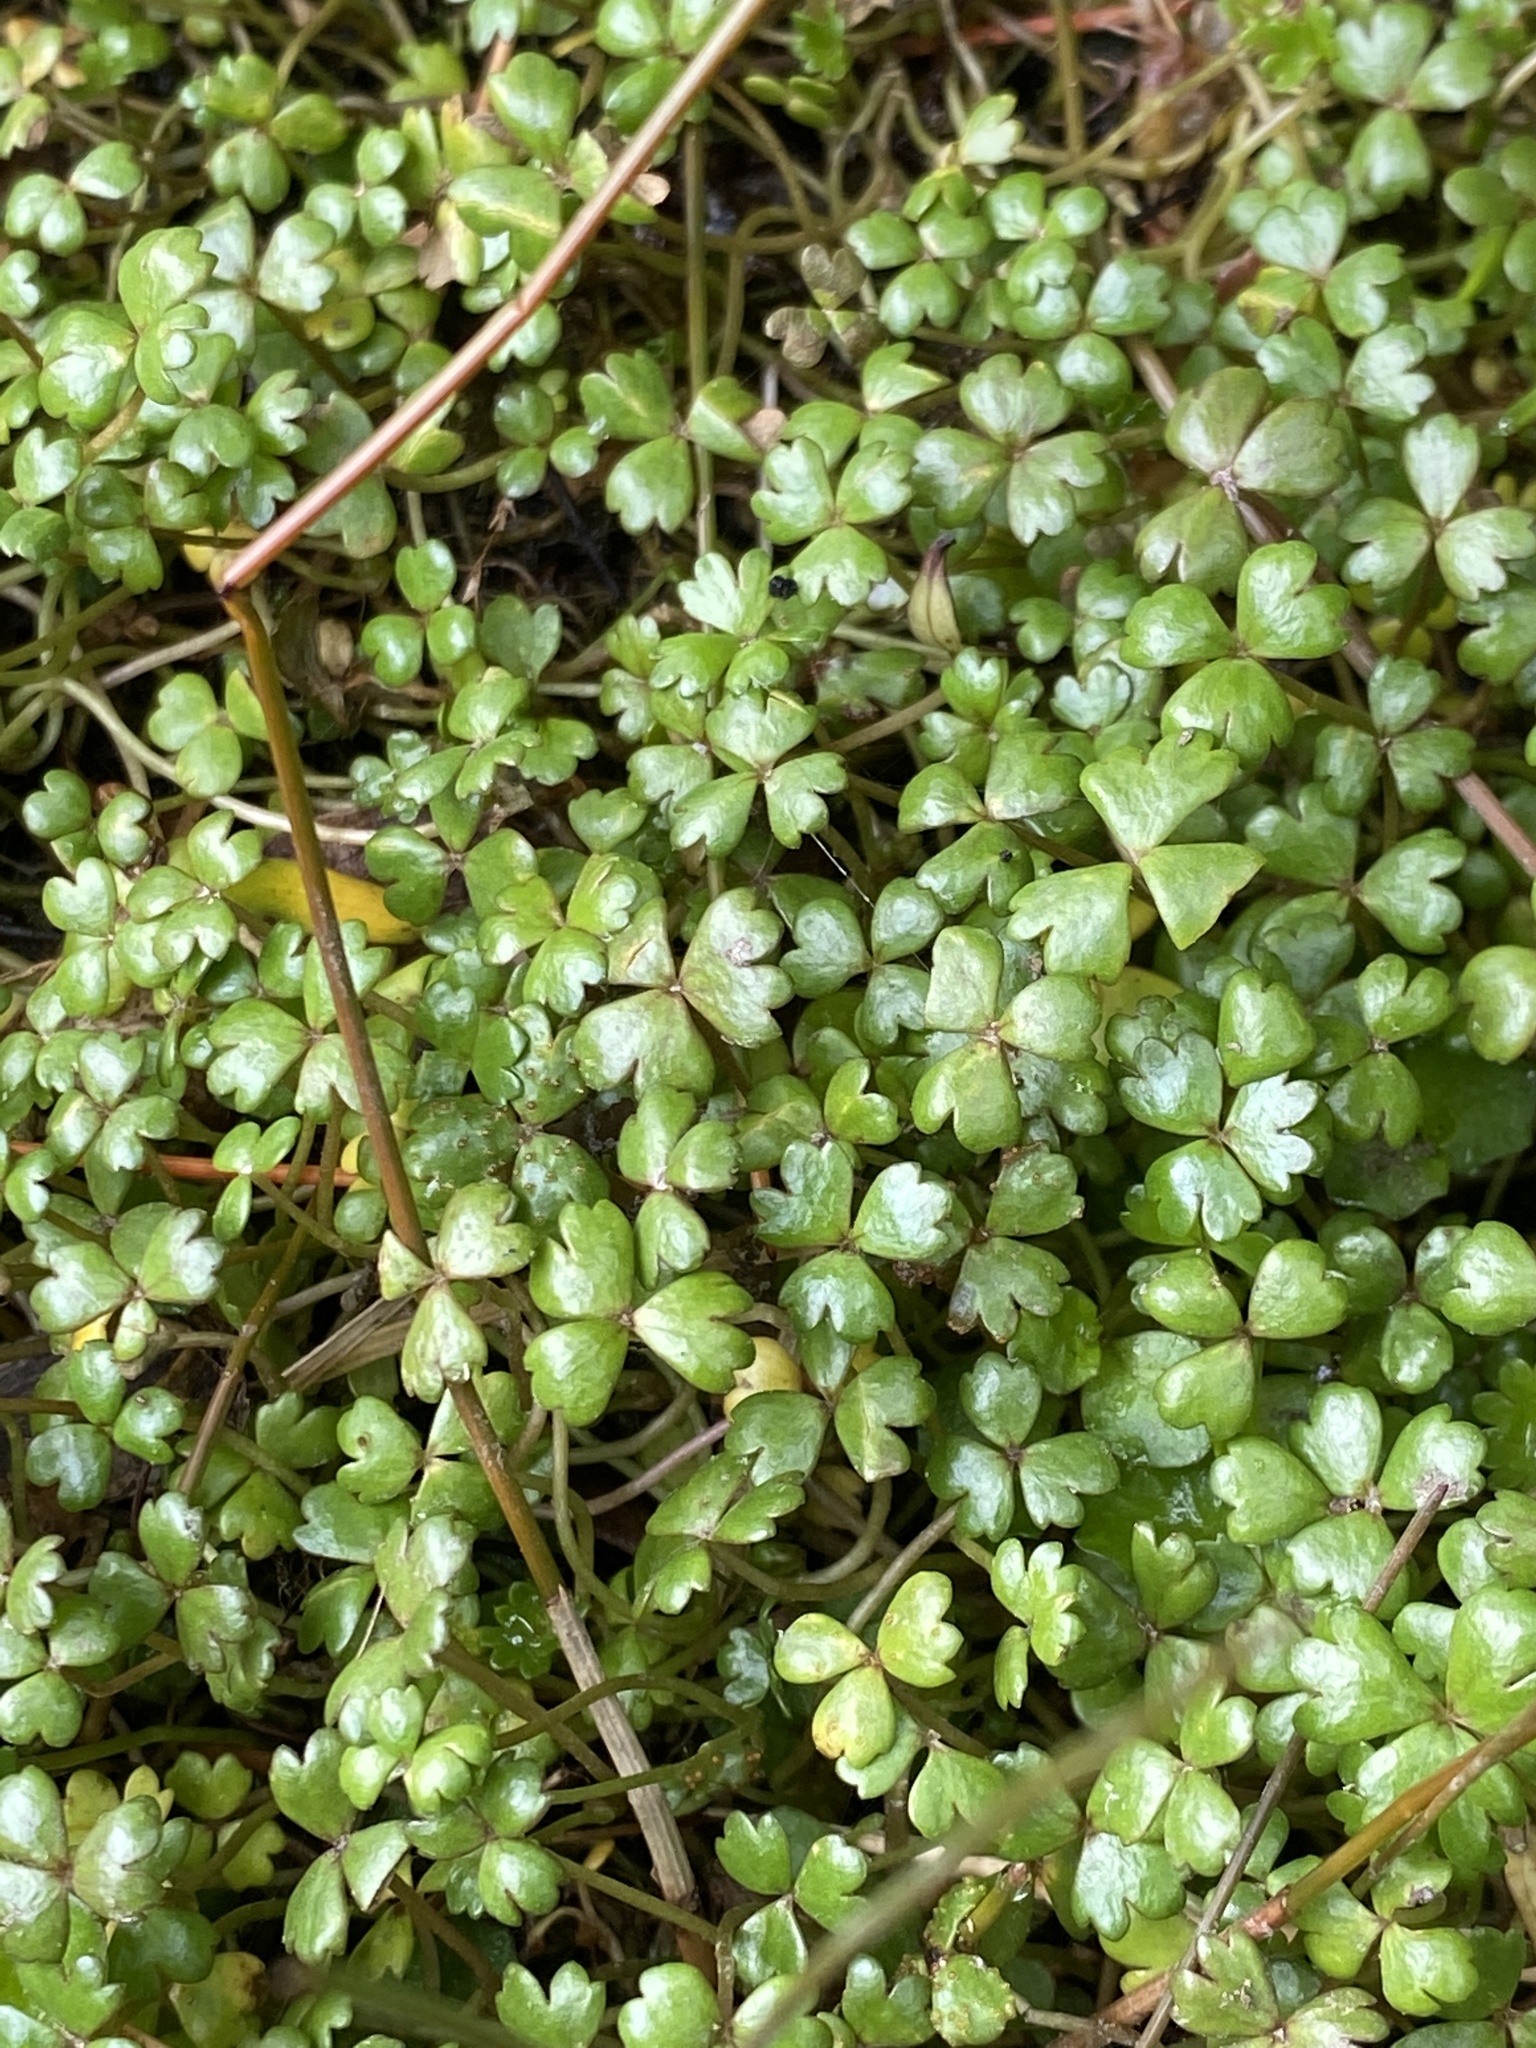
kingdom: Plantae
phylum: Tracheophyta
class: Magnoliopsida
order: Apiales
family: Araliaceae
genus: Hydrocotyle
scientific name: Hydrocotyle sulcata
